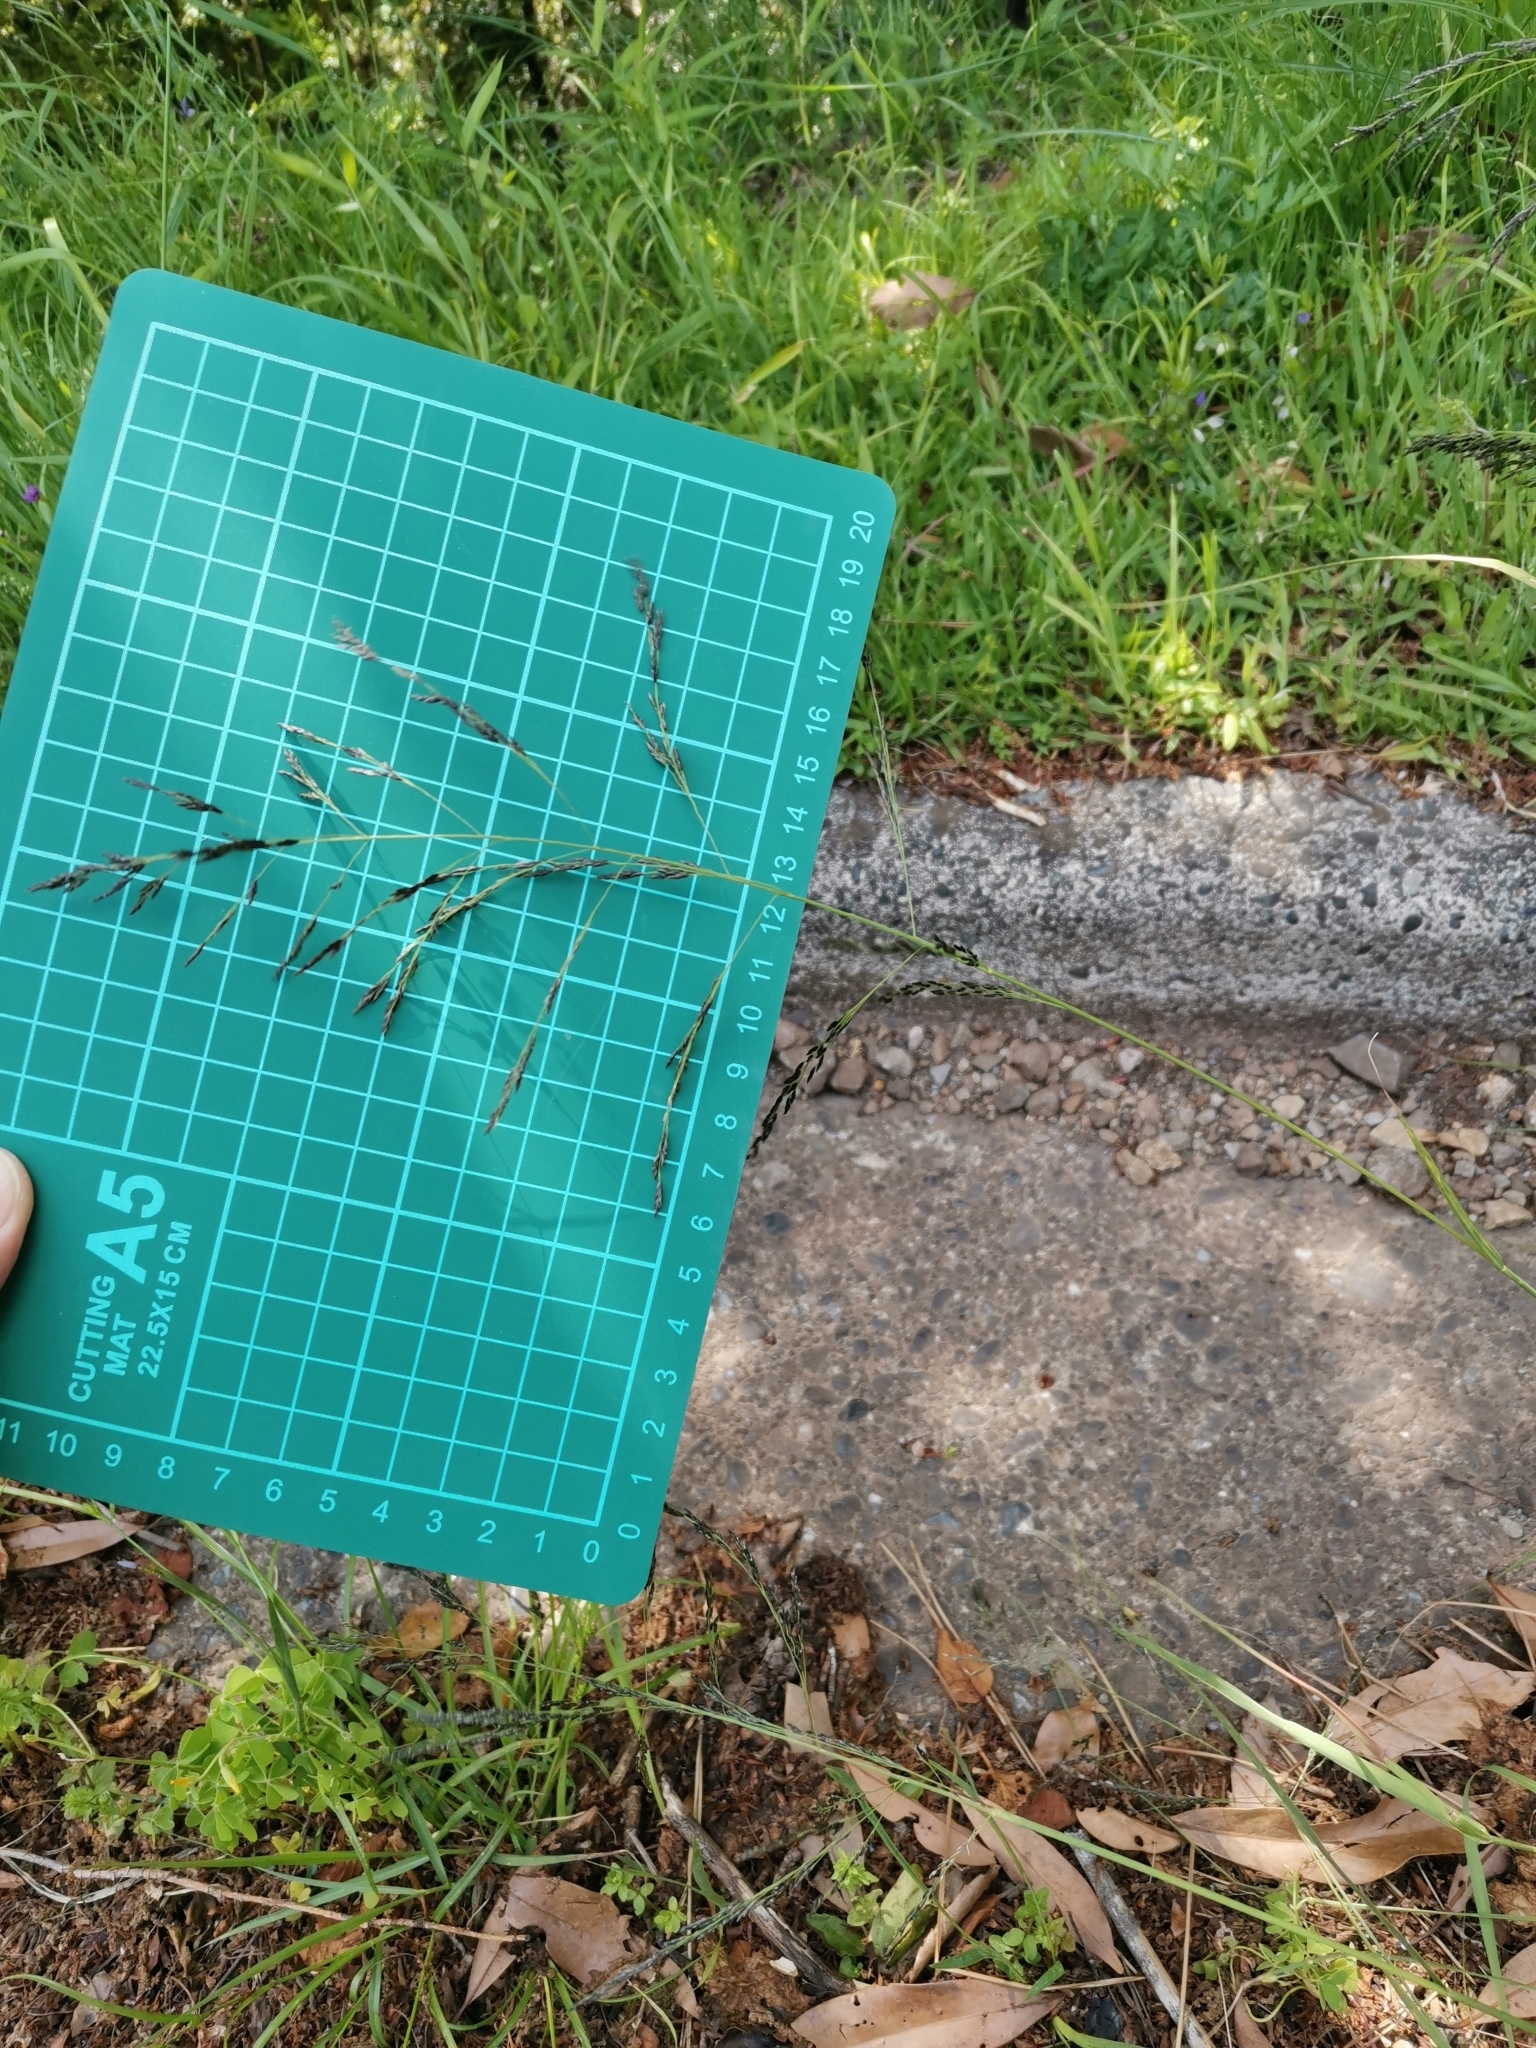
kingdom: Plantae
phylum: Tracheophyta
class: Liliopsida
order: Poales
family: Poaceae
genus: Eragrostis
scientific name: Eragrostis curvula
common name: African love-grass
